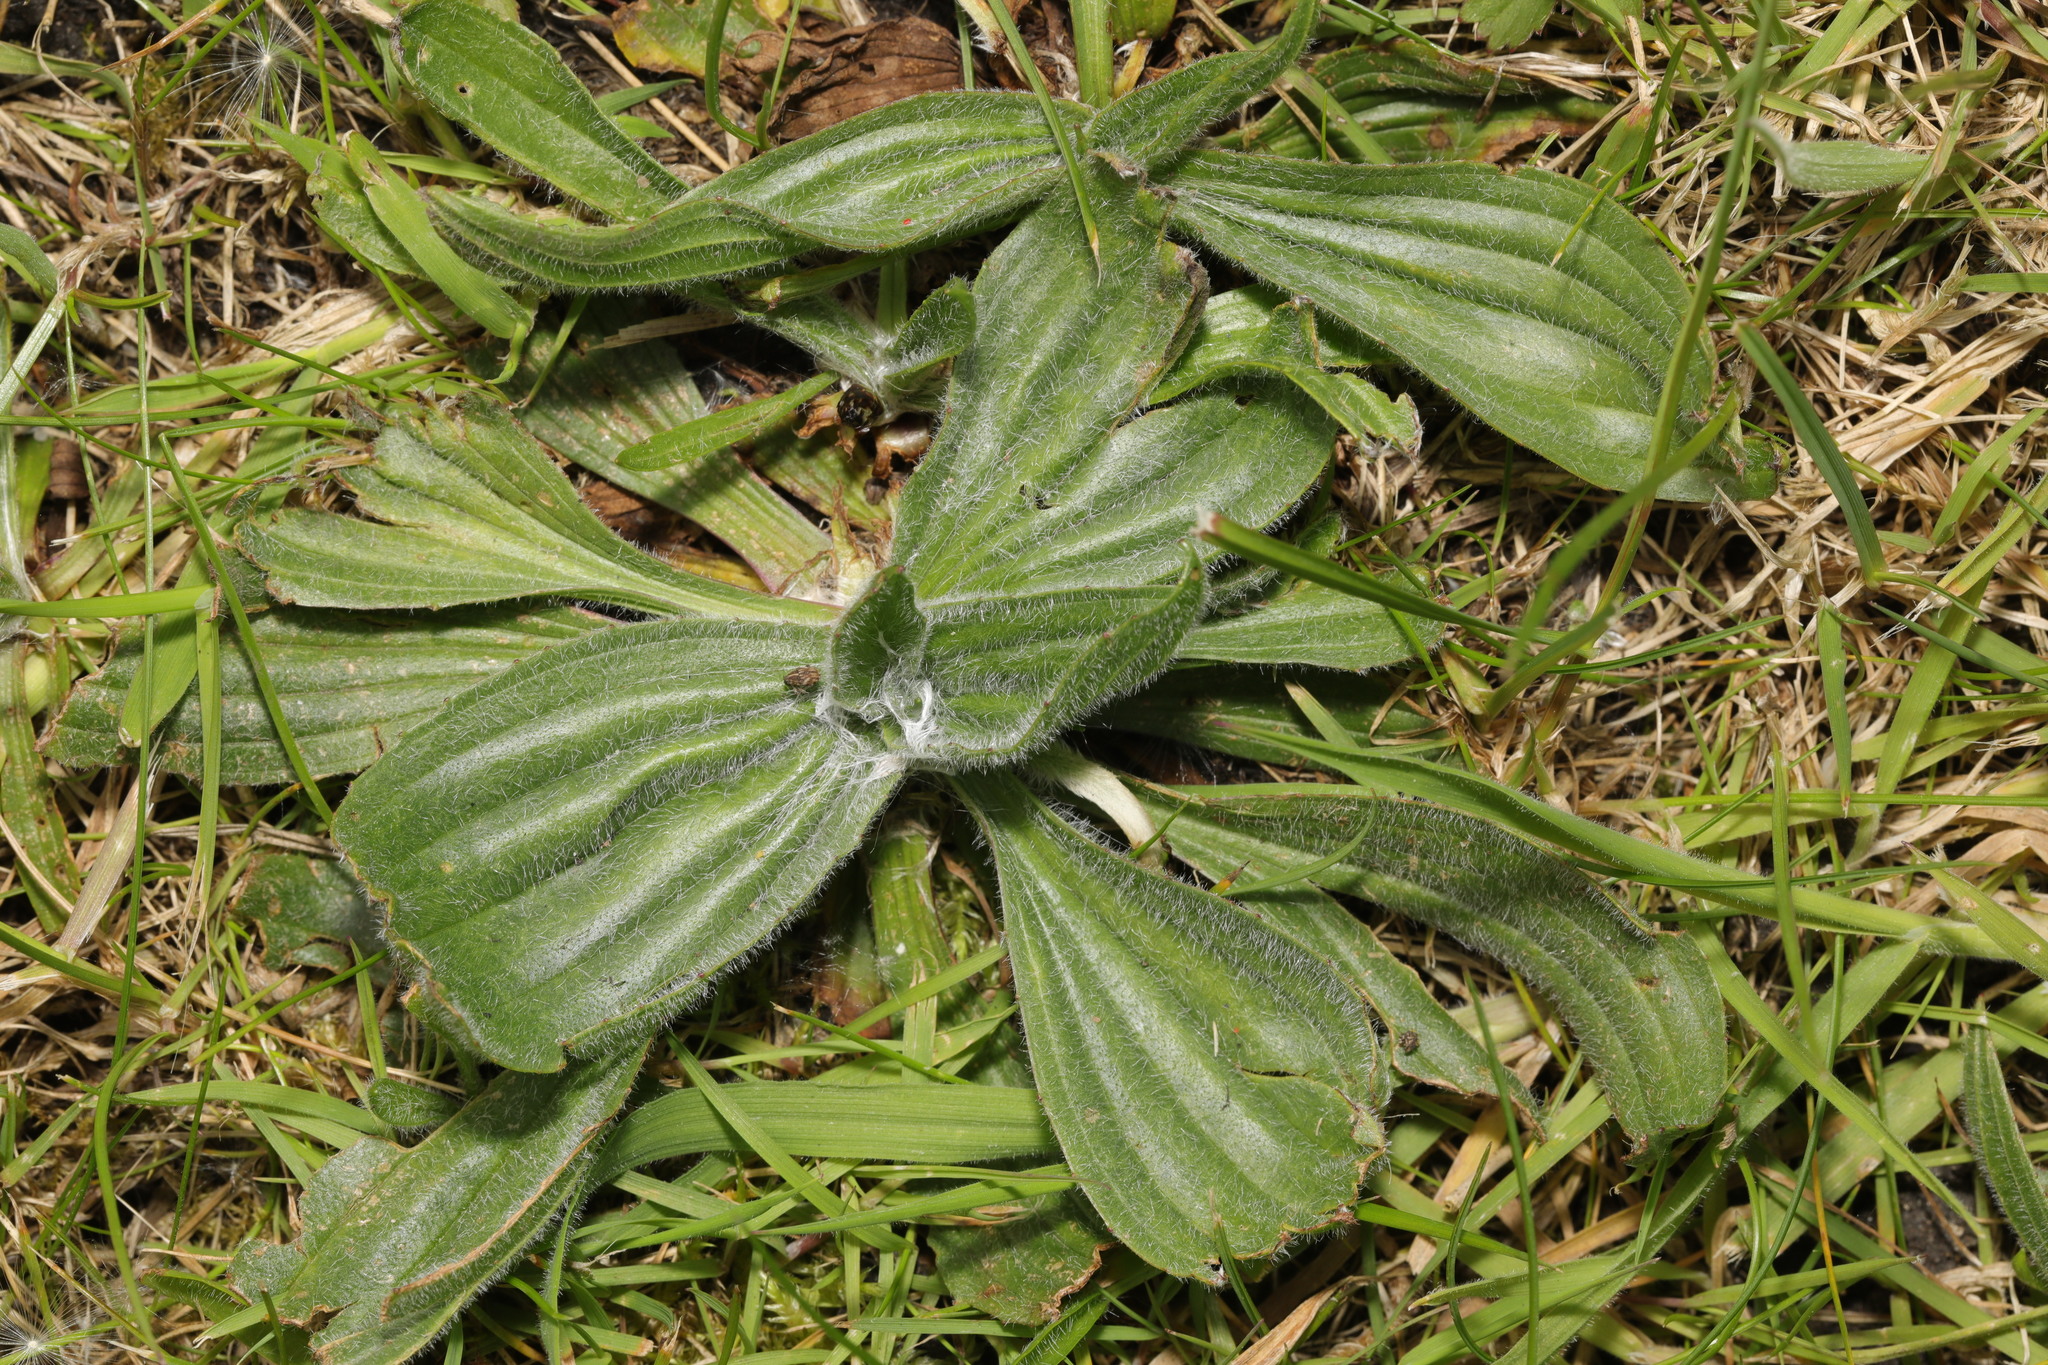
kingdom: Plantae
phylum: Tracheophyta
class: Magnoliopsida
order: Lamiales
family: Plantaginaceae
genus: Plantago
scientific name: Plantago media
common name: Hoary plantain
